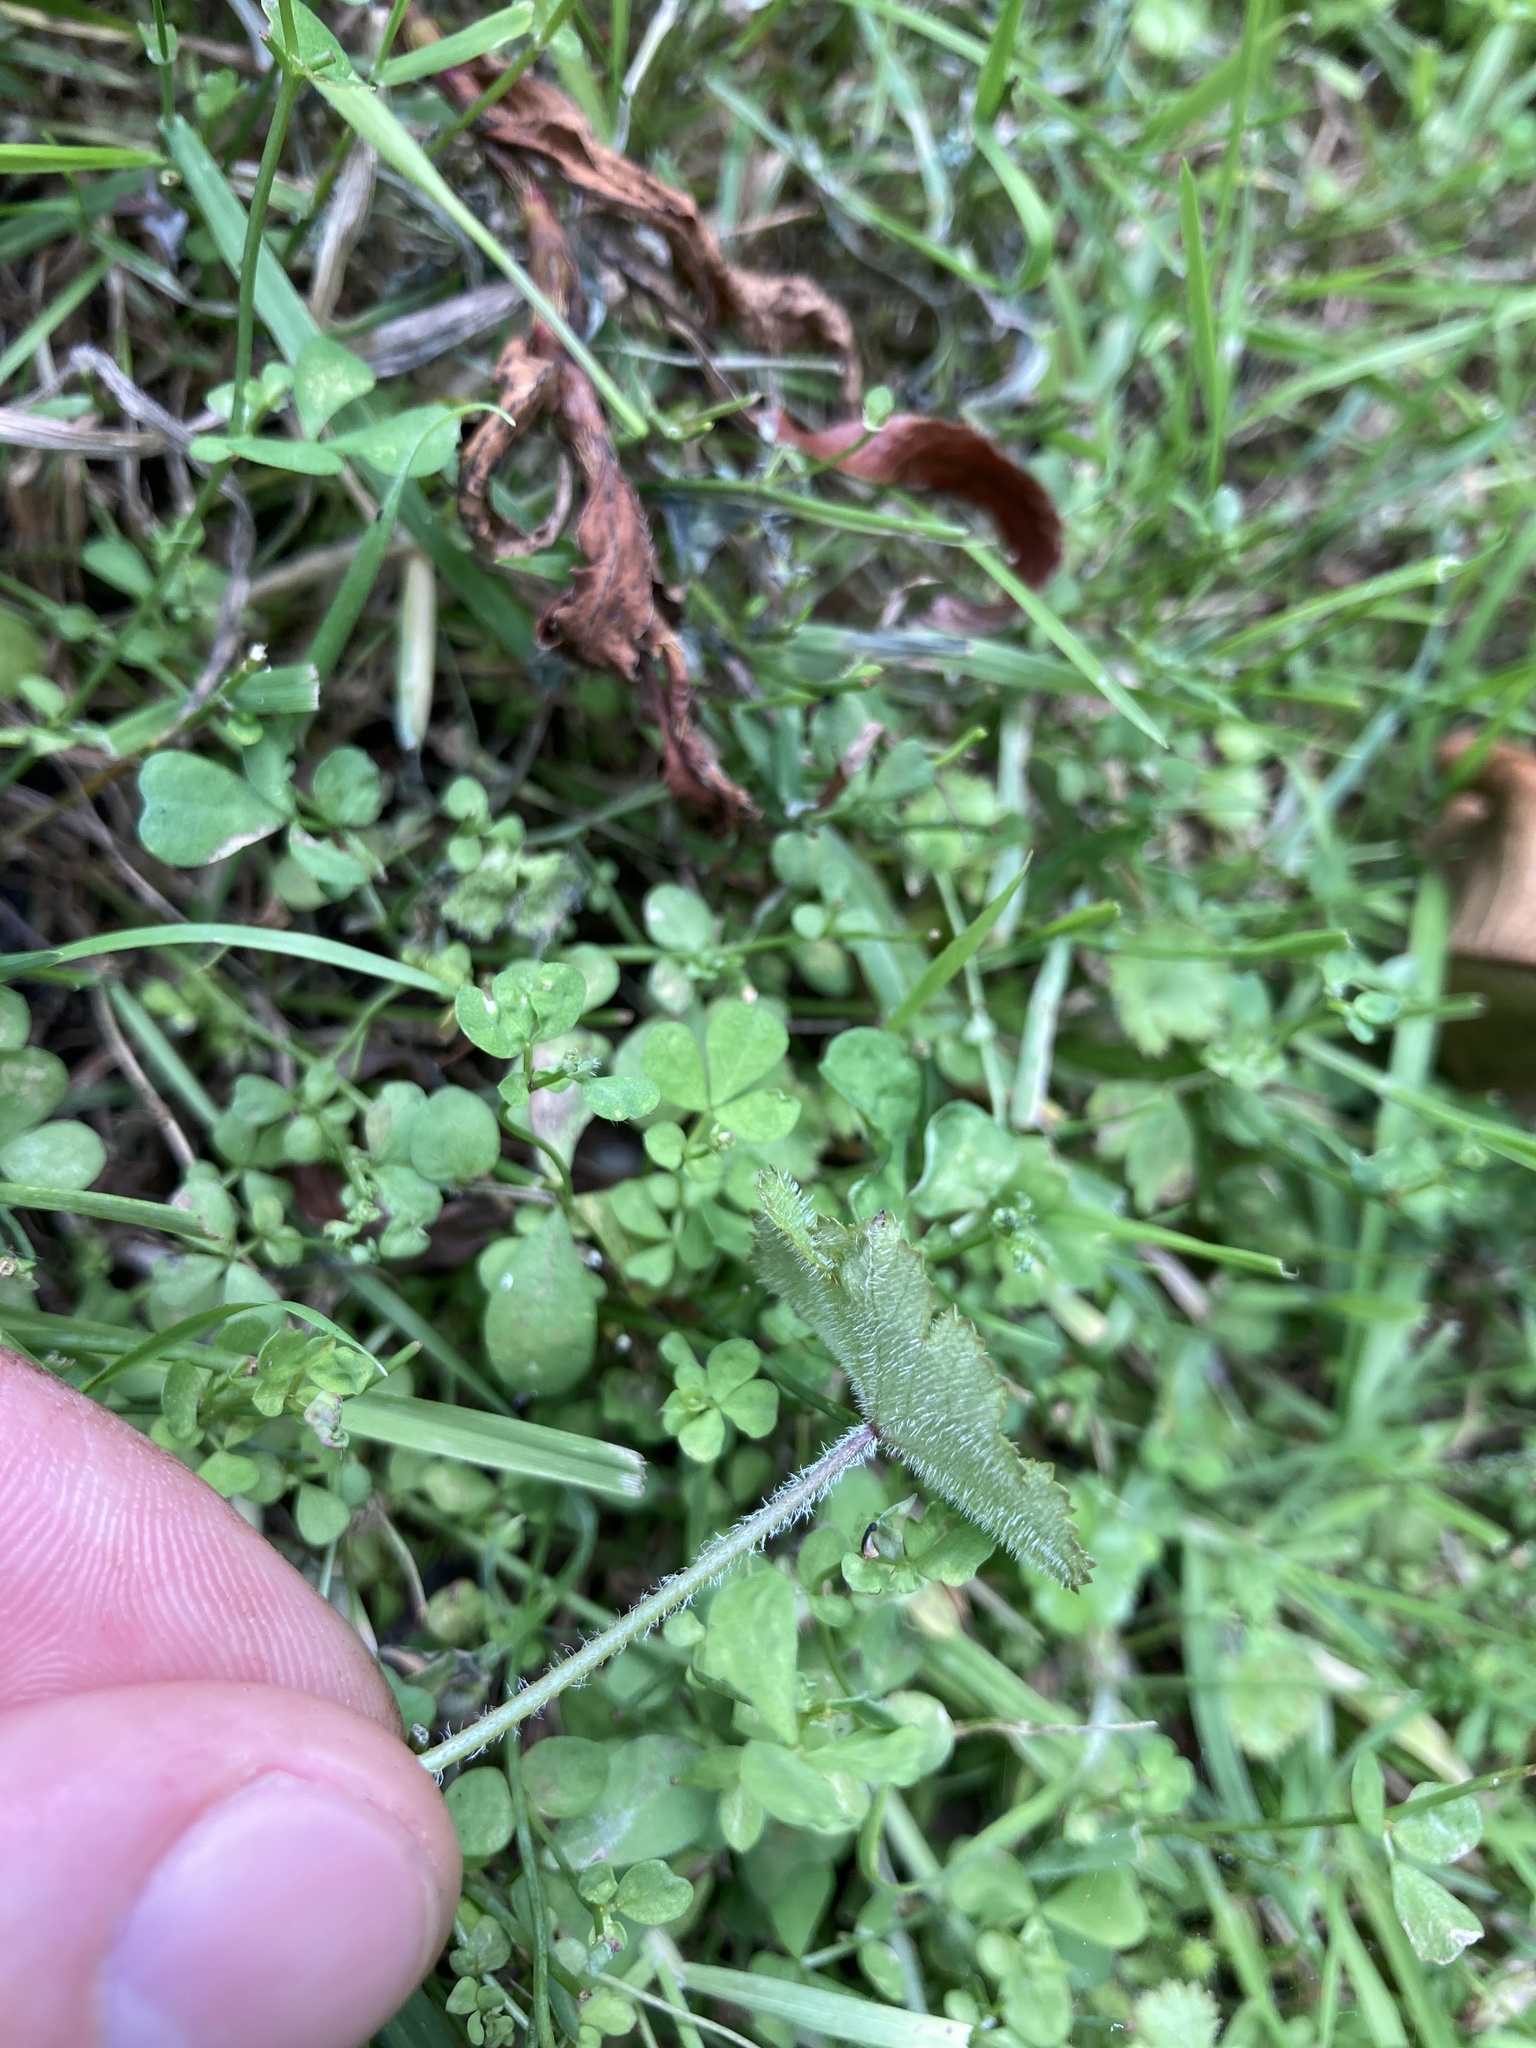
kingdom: Plantae
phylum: Tracheophyta
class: Magnoliopsida
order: Apiales
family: Araliaceae
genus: Hydrocotyle
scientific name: Hydrocotyle moschata
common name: Hairy pennywort
